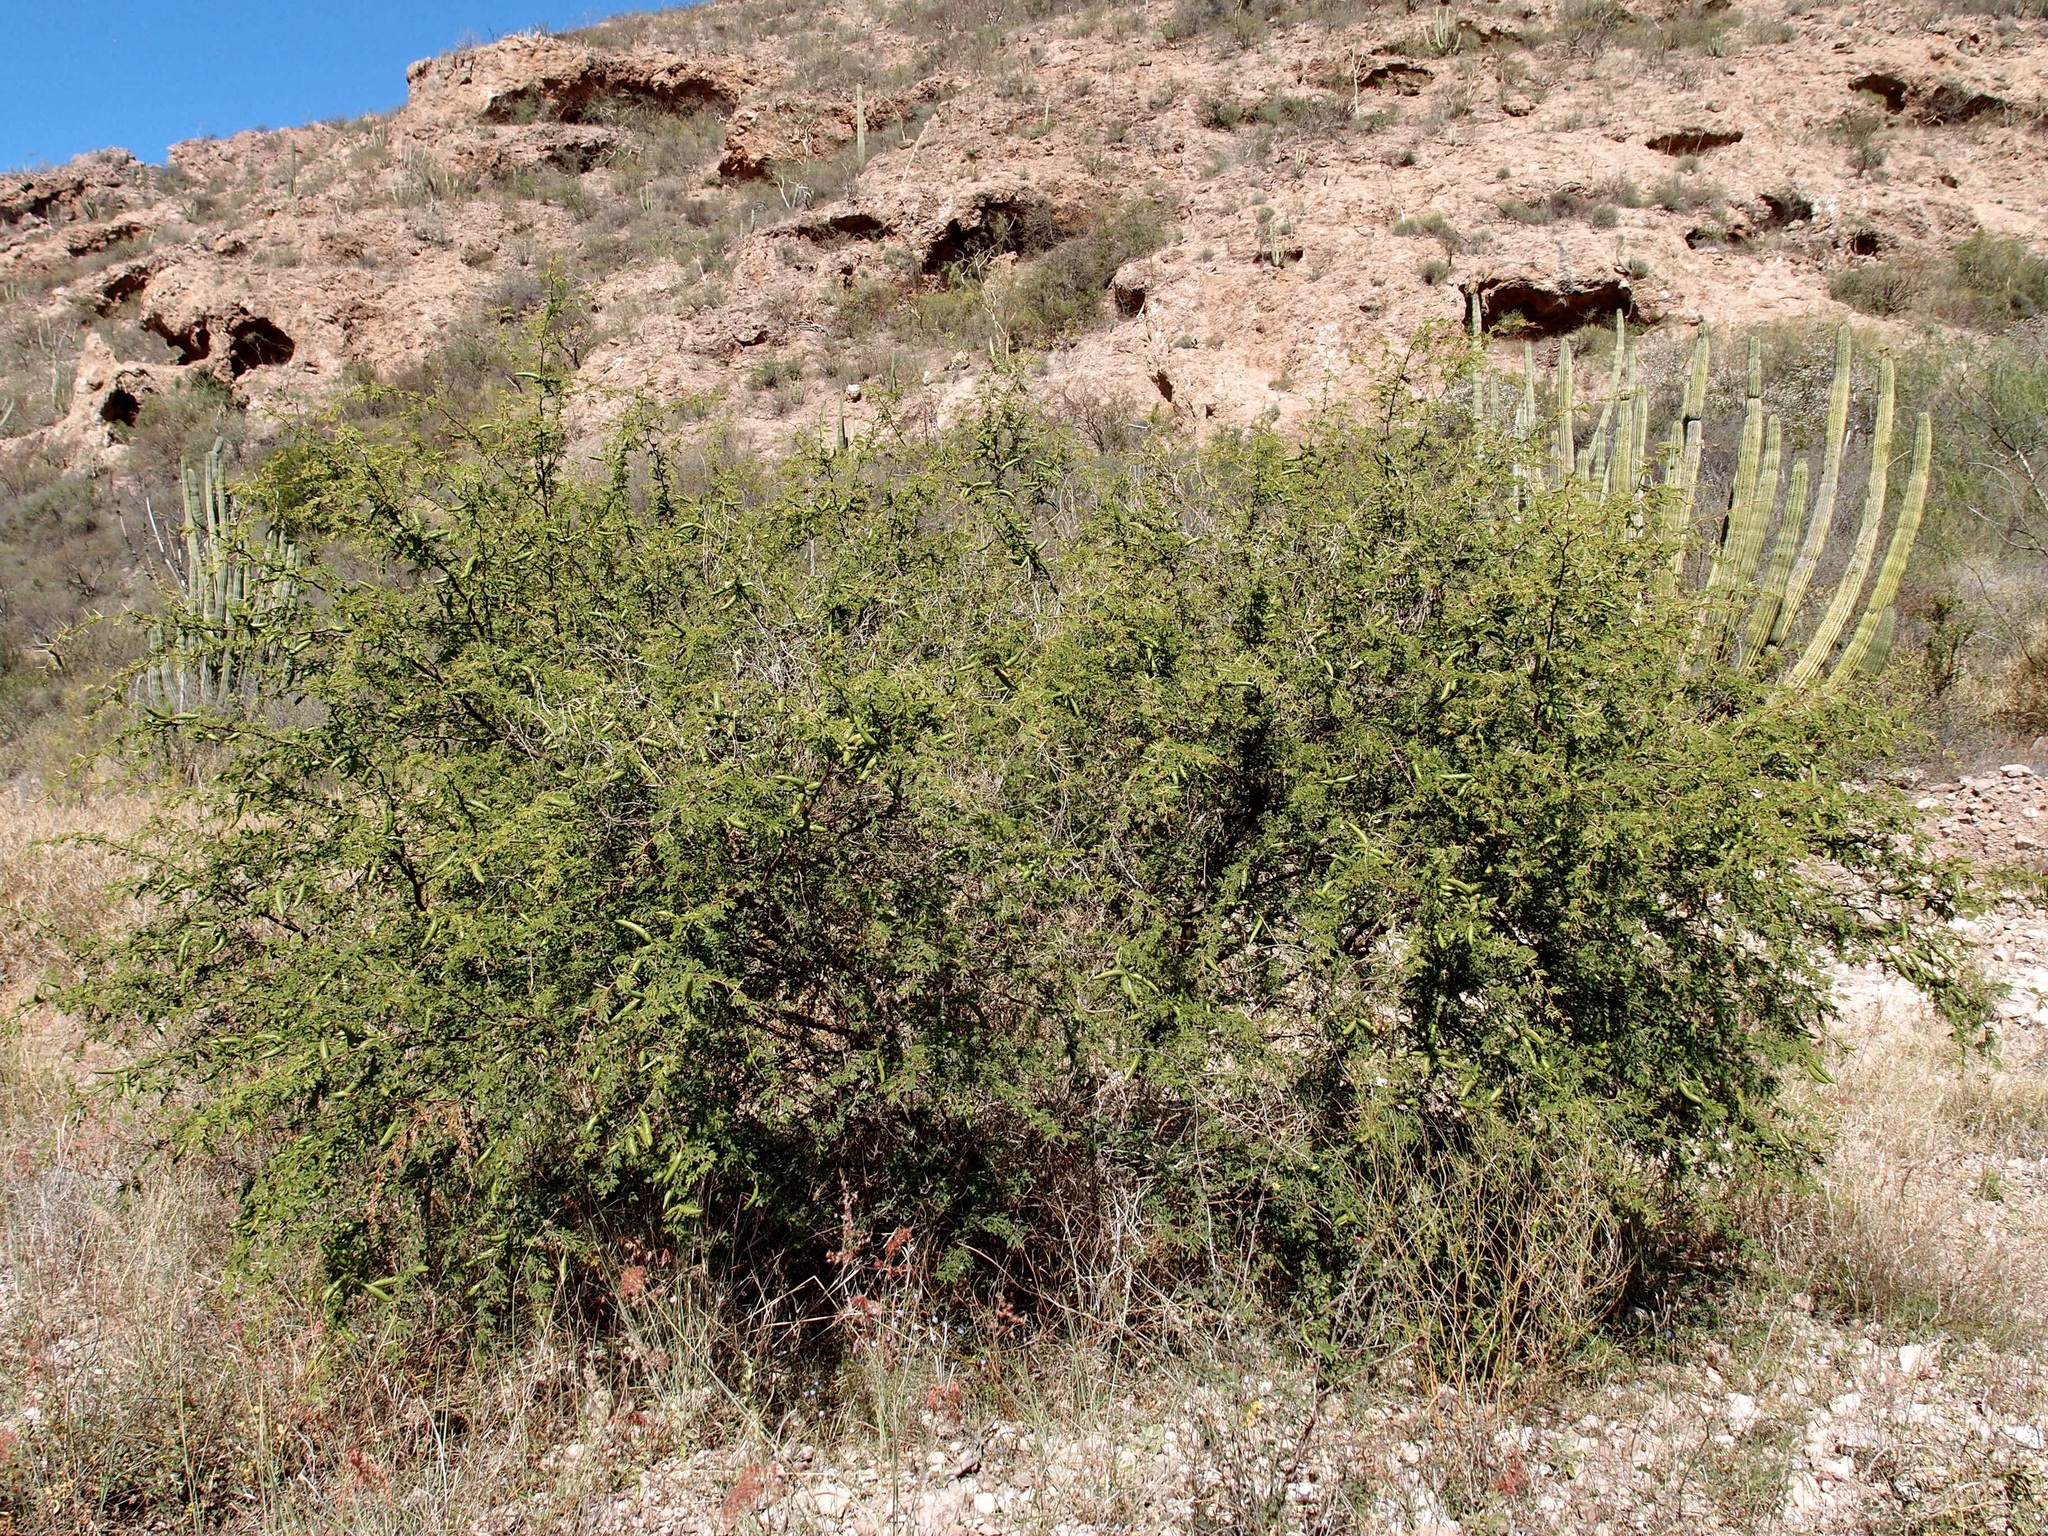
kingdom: Plantae
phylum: Tracheophyta
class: Magnoliopsida
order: Fabales
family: Fabaceae
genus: Vachellia
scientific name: Vachellia farnesiana
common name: Sweet acacia
